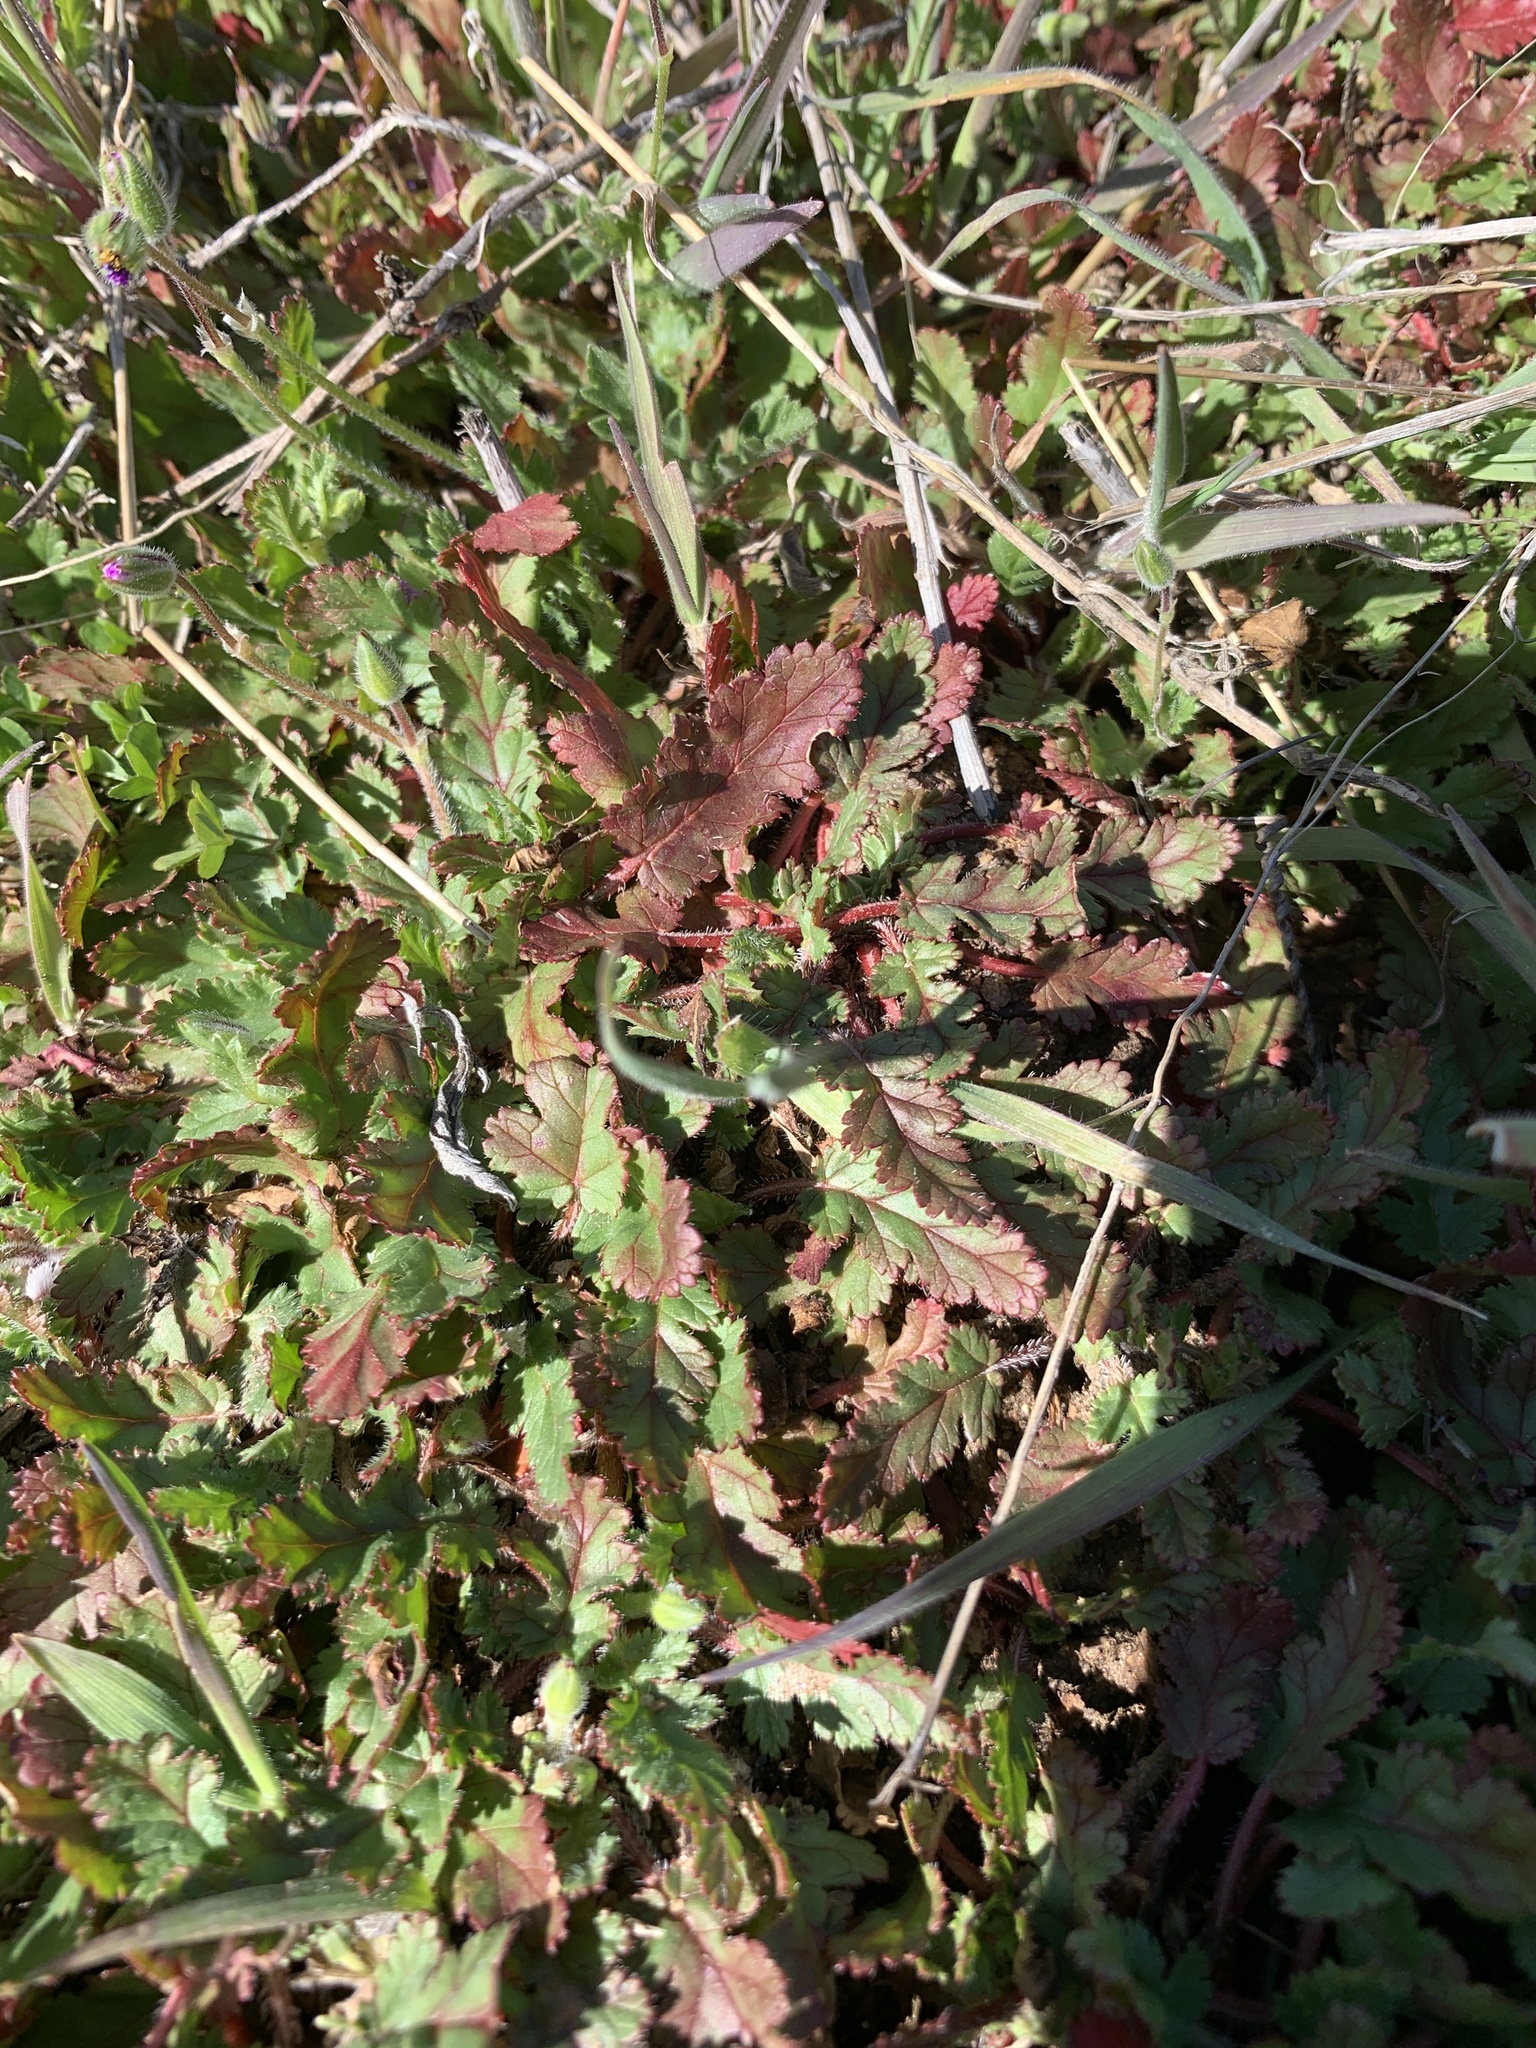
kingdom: Plantae
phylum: Tracheophyta
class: Magnoliopsida
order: Geraniales
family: Geraniaceae
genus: Erodium
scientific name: Erodium botrys
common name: Mediterranean stork's-bill
